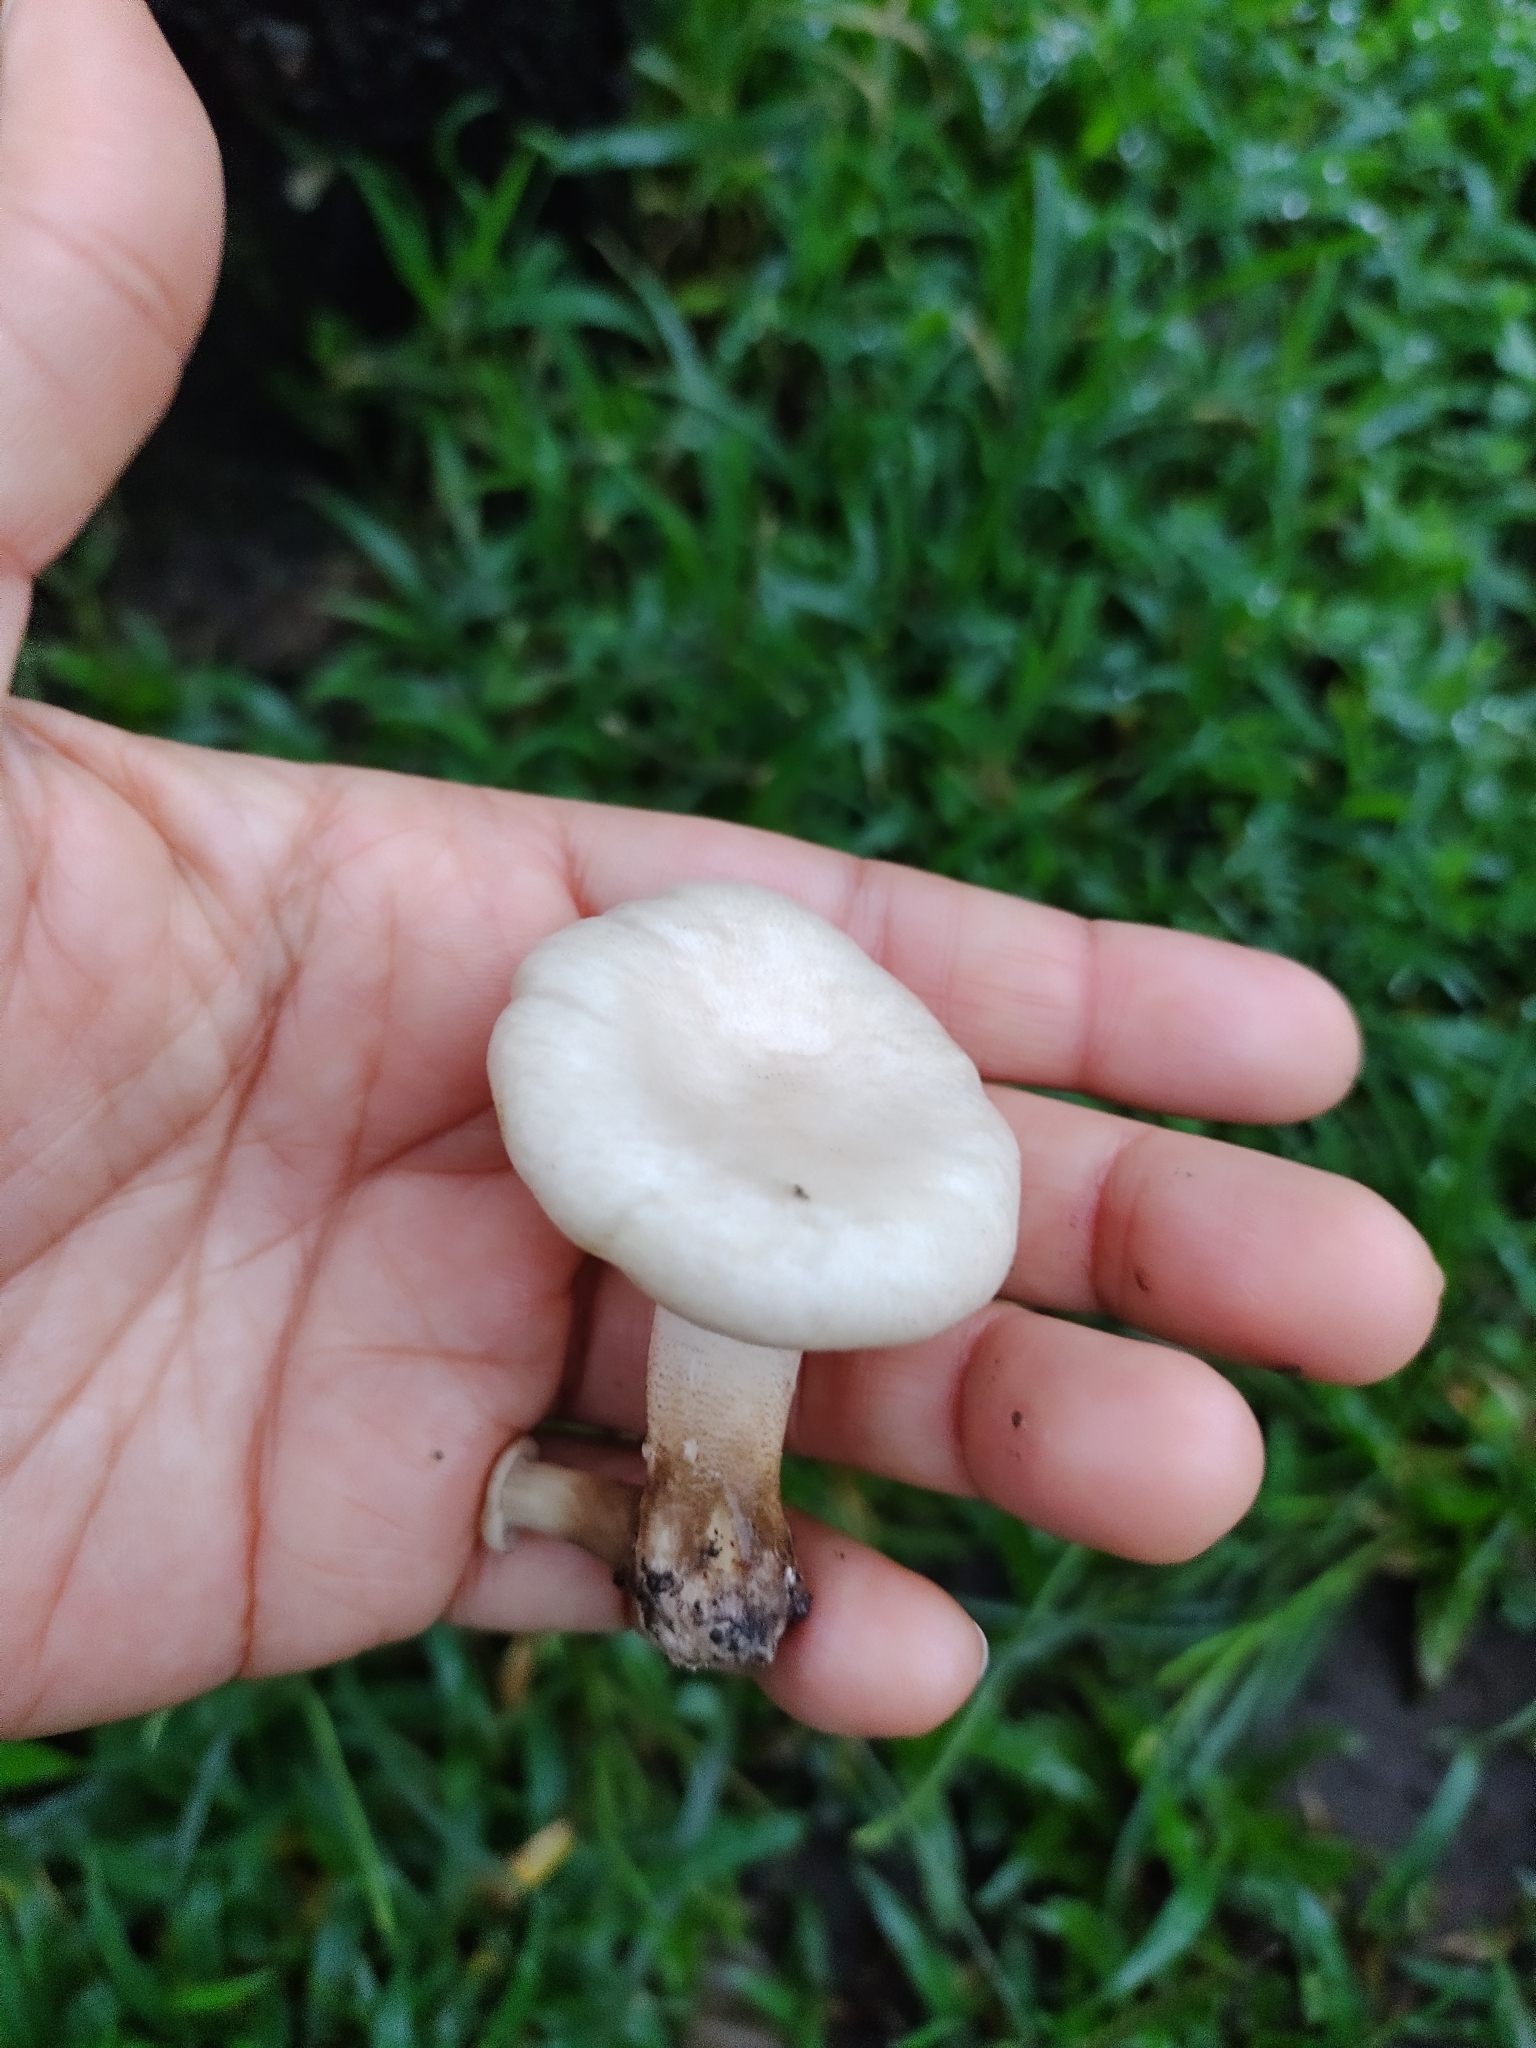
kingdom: Fungi
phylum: Basidiomycota
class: Agaricomycetes
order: Polyporales
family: Polyporaceae
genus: Lentinus
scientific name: Lentinus scleropus
